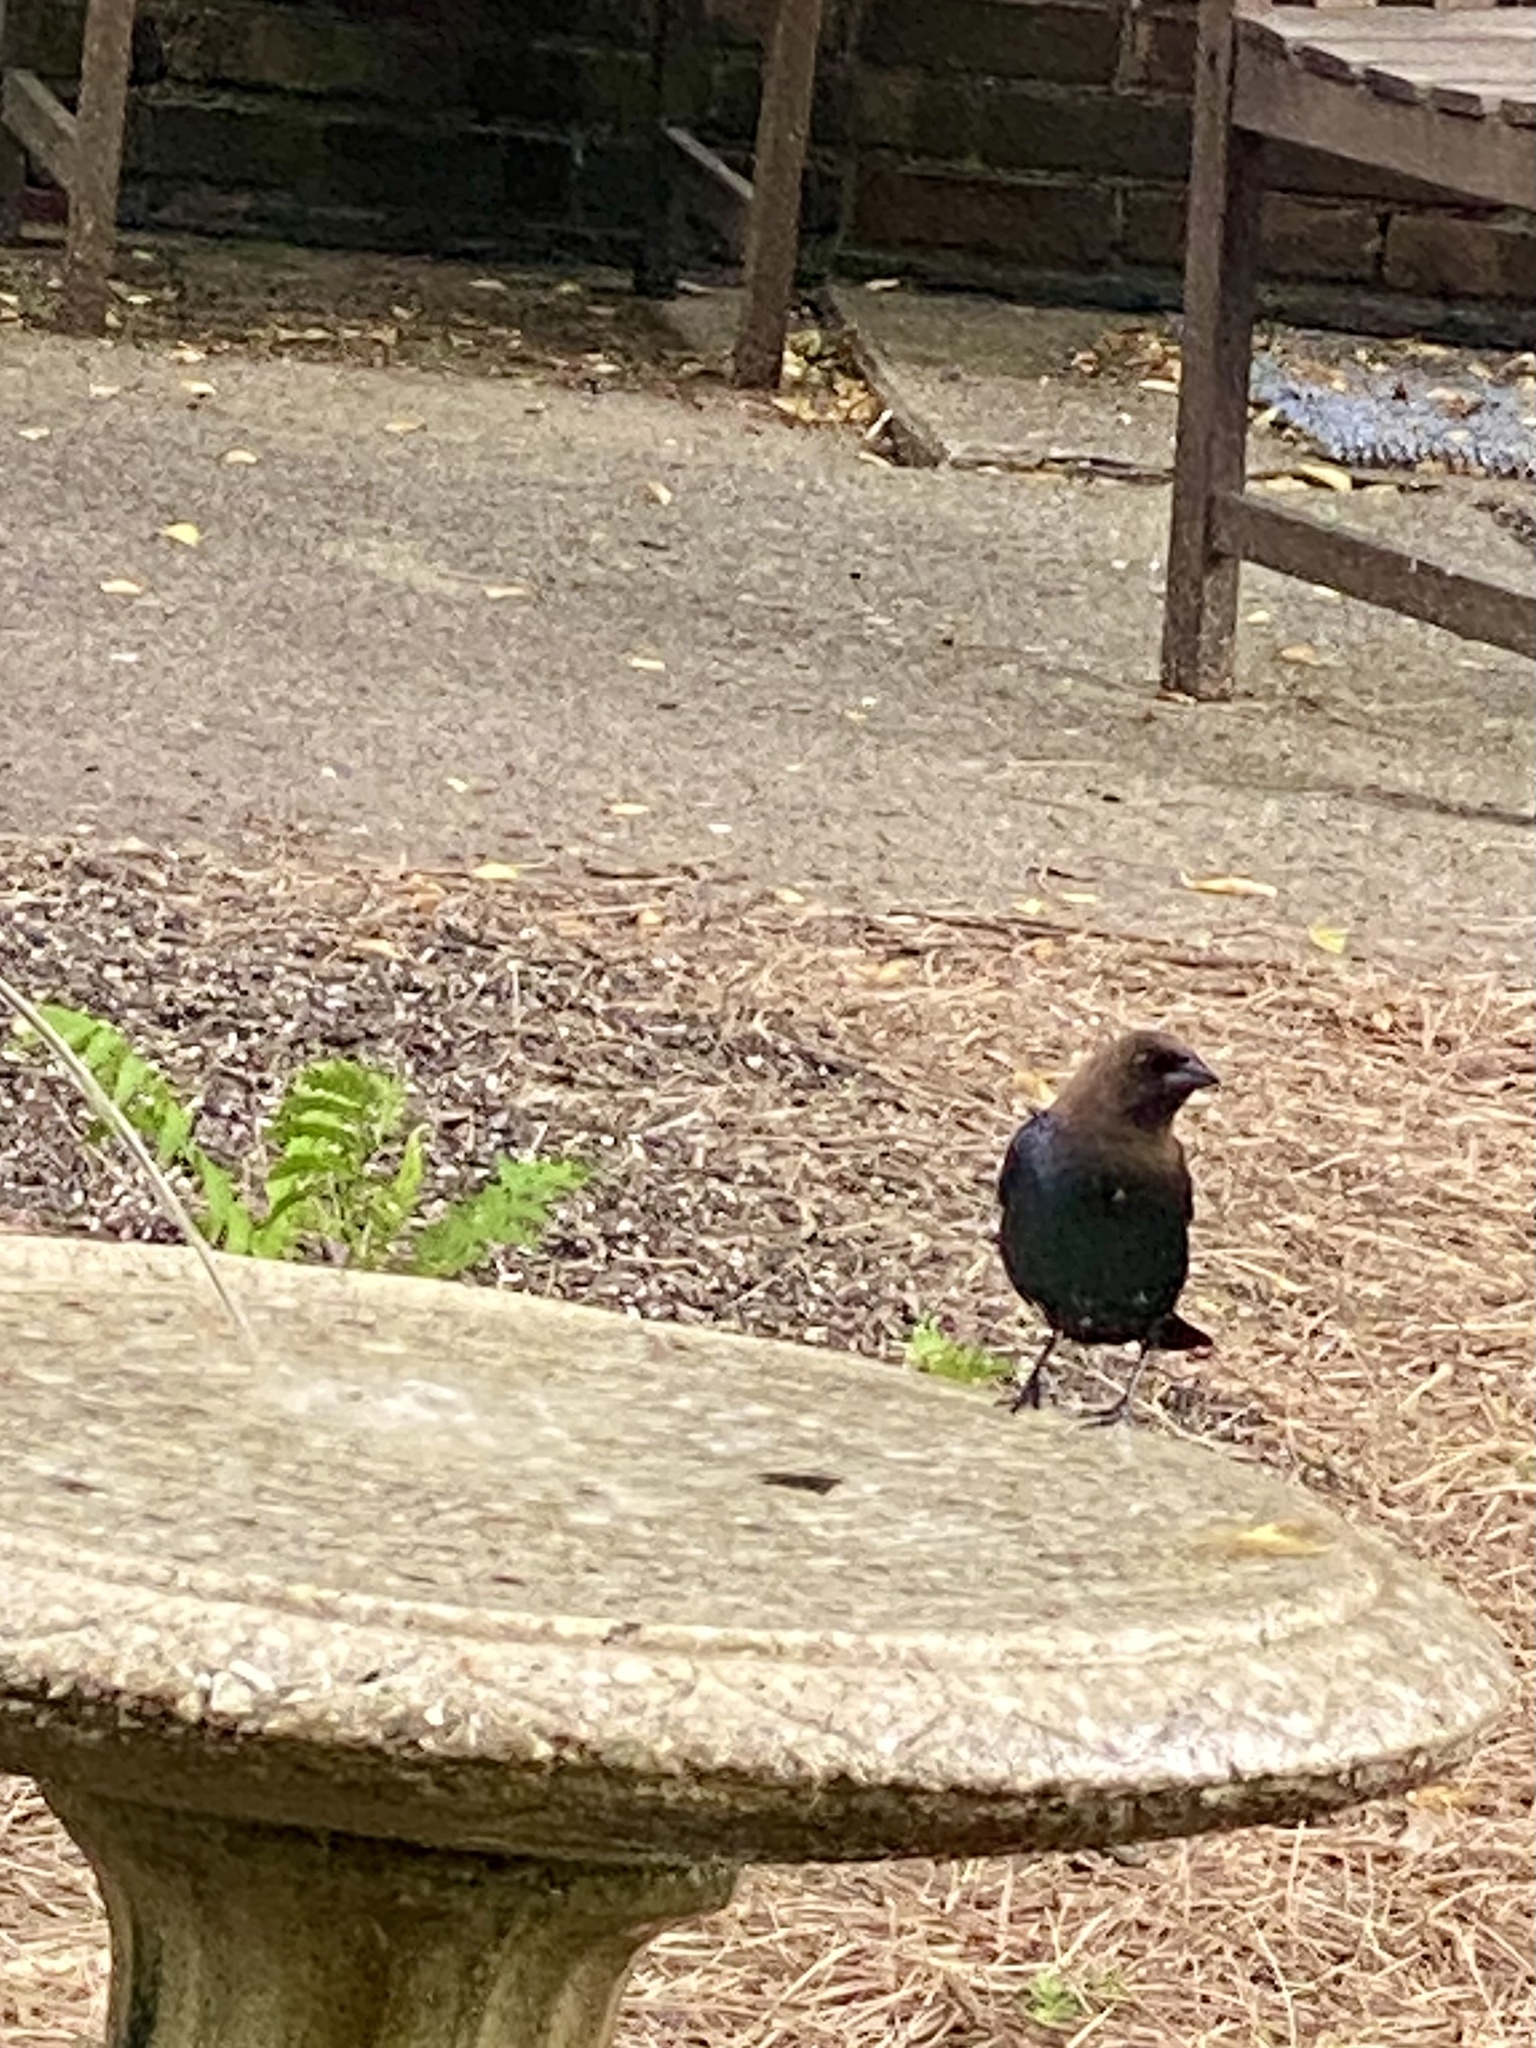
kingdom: Animalia
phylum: Chordata
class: Aves
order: Passeriformes
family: Icteridae
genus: Molothrus
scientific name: Molothrus ater
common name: Brown-headed cowbird
